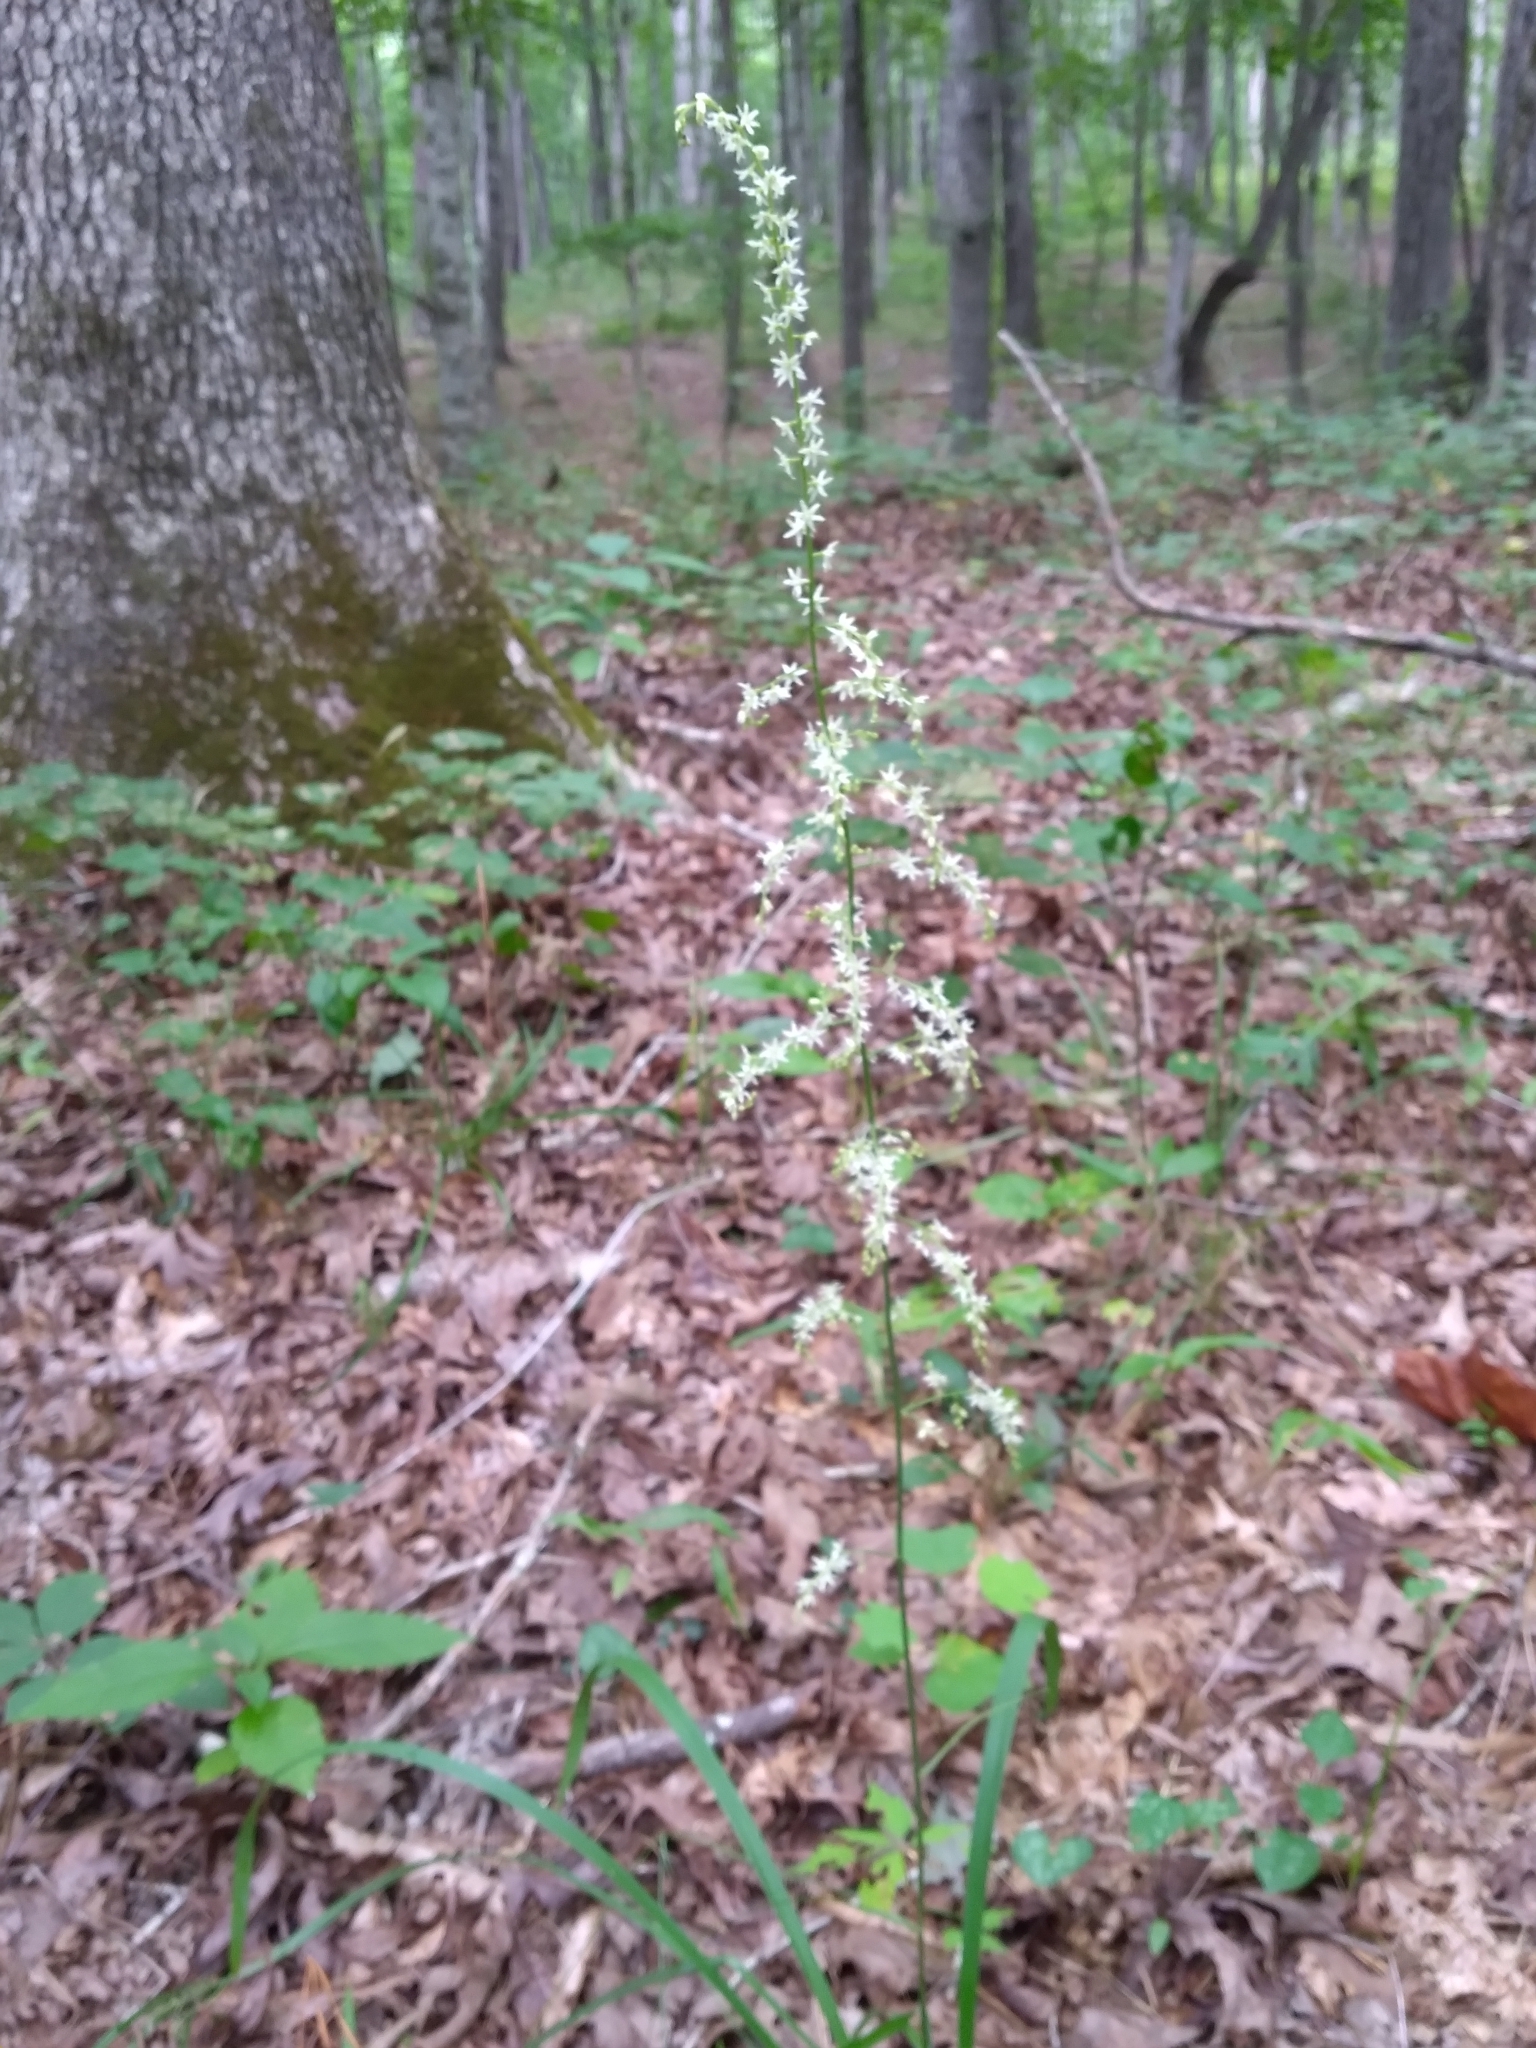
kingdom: Plantae
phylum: Tracheophyta
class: Liliopsida
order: Liliales
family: Melanthiaceae
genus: Stenanthium
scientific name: Stenanthium gramineum
